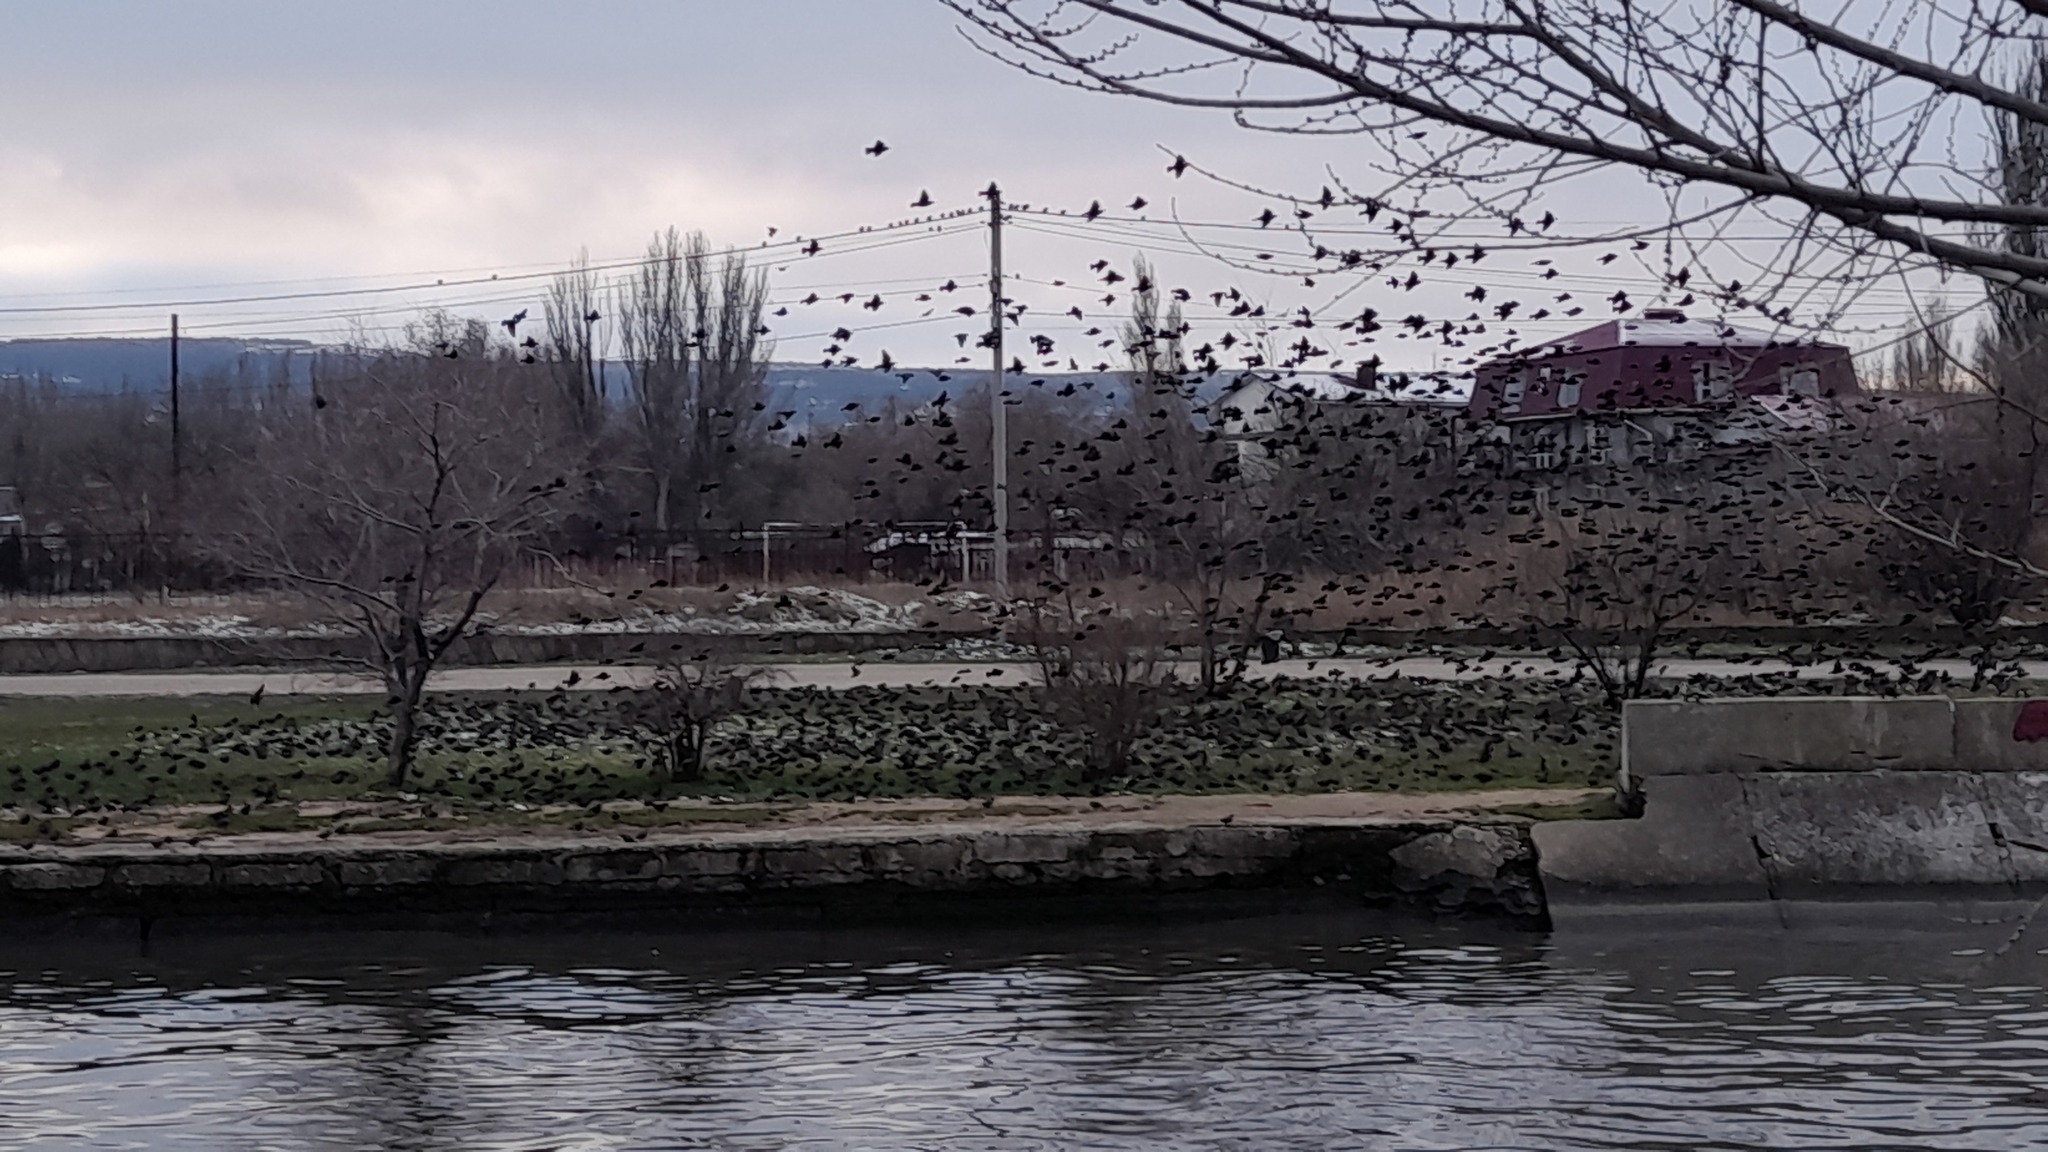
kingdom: Animalia
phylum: Chordata
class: Aves
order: Passeriformes
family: Sturnidae
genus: Sturnus
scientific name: Sturnus vulgaris
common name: Common starling
